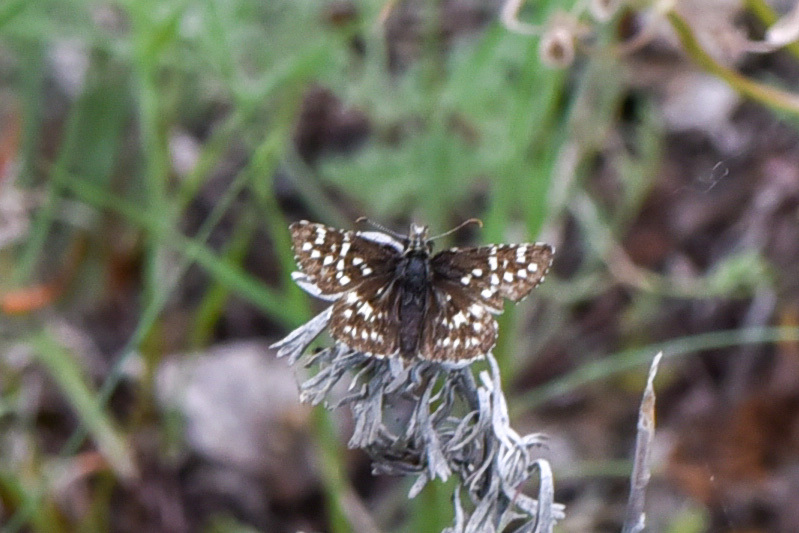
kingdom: Animalia
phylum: Arthropoda
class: Insecta
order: Lepidoptera
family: Hesperiidae
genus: Pyrgus
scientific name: Pyrgus ruralis
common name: Two-banded checkered-skipper
